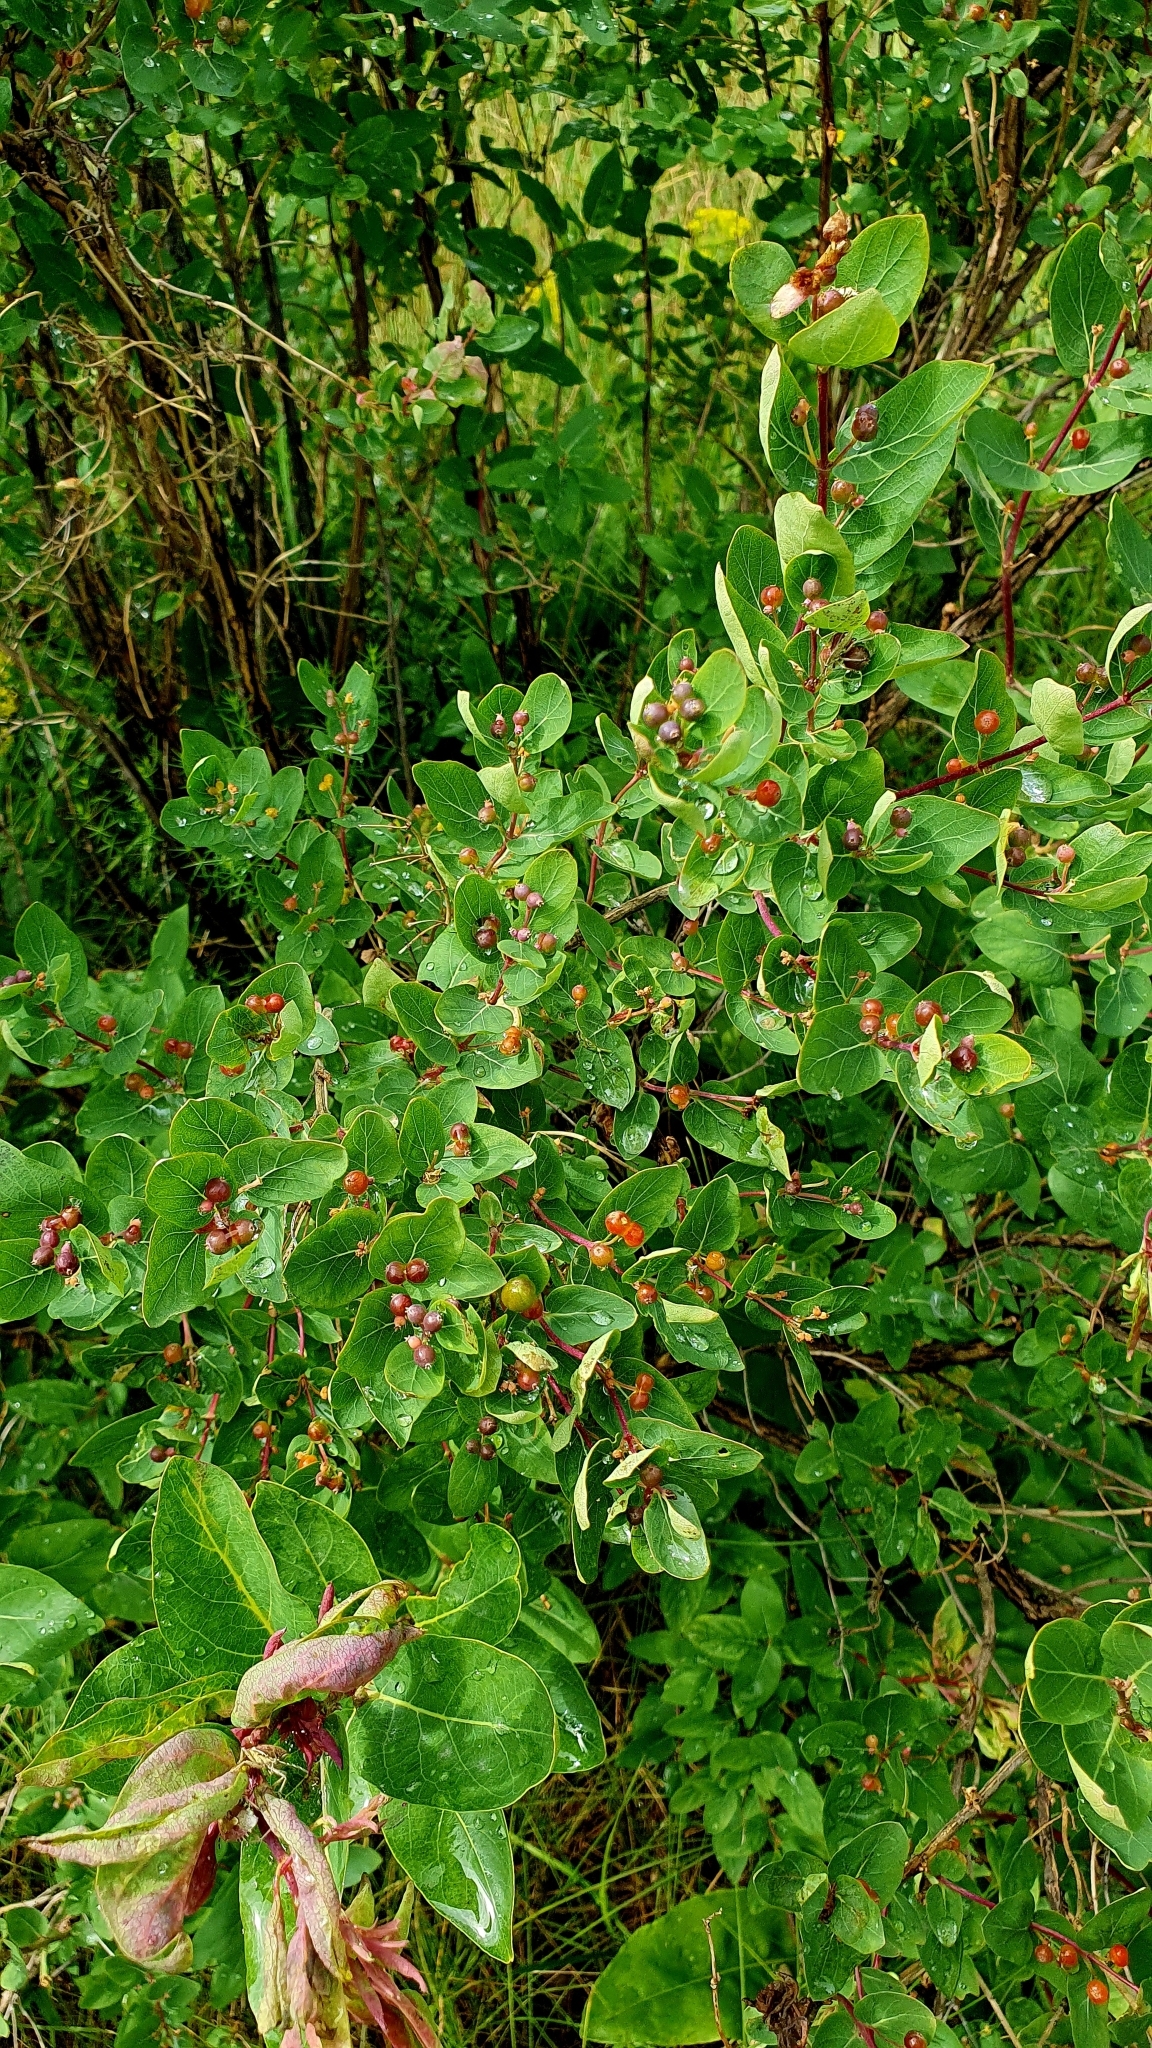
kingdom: Plantae
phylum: Tracheophyta
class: Magnoliopsida
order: Dipsacales
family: Caprifoliaceae
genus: Lonicera
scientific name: Lonicera tatarica
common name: Tatarian honeysuckle
